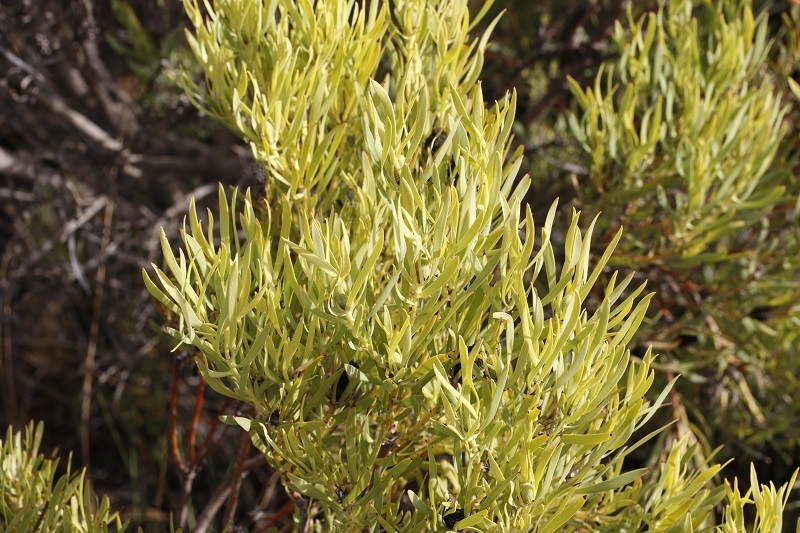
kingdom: Plantae
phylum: Tracheophyta
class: Magnoliopsida
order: Proteales
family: Proteaceae
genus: Leucadendron
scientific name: Leucadendron salignum
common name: Common sunshine conebush
